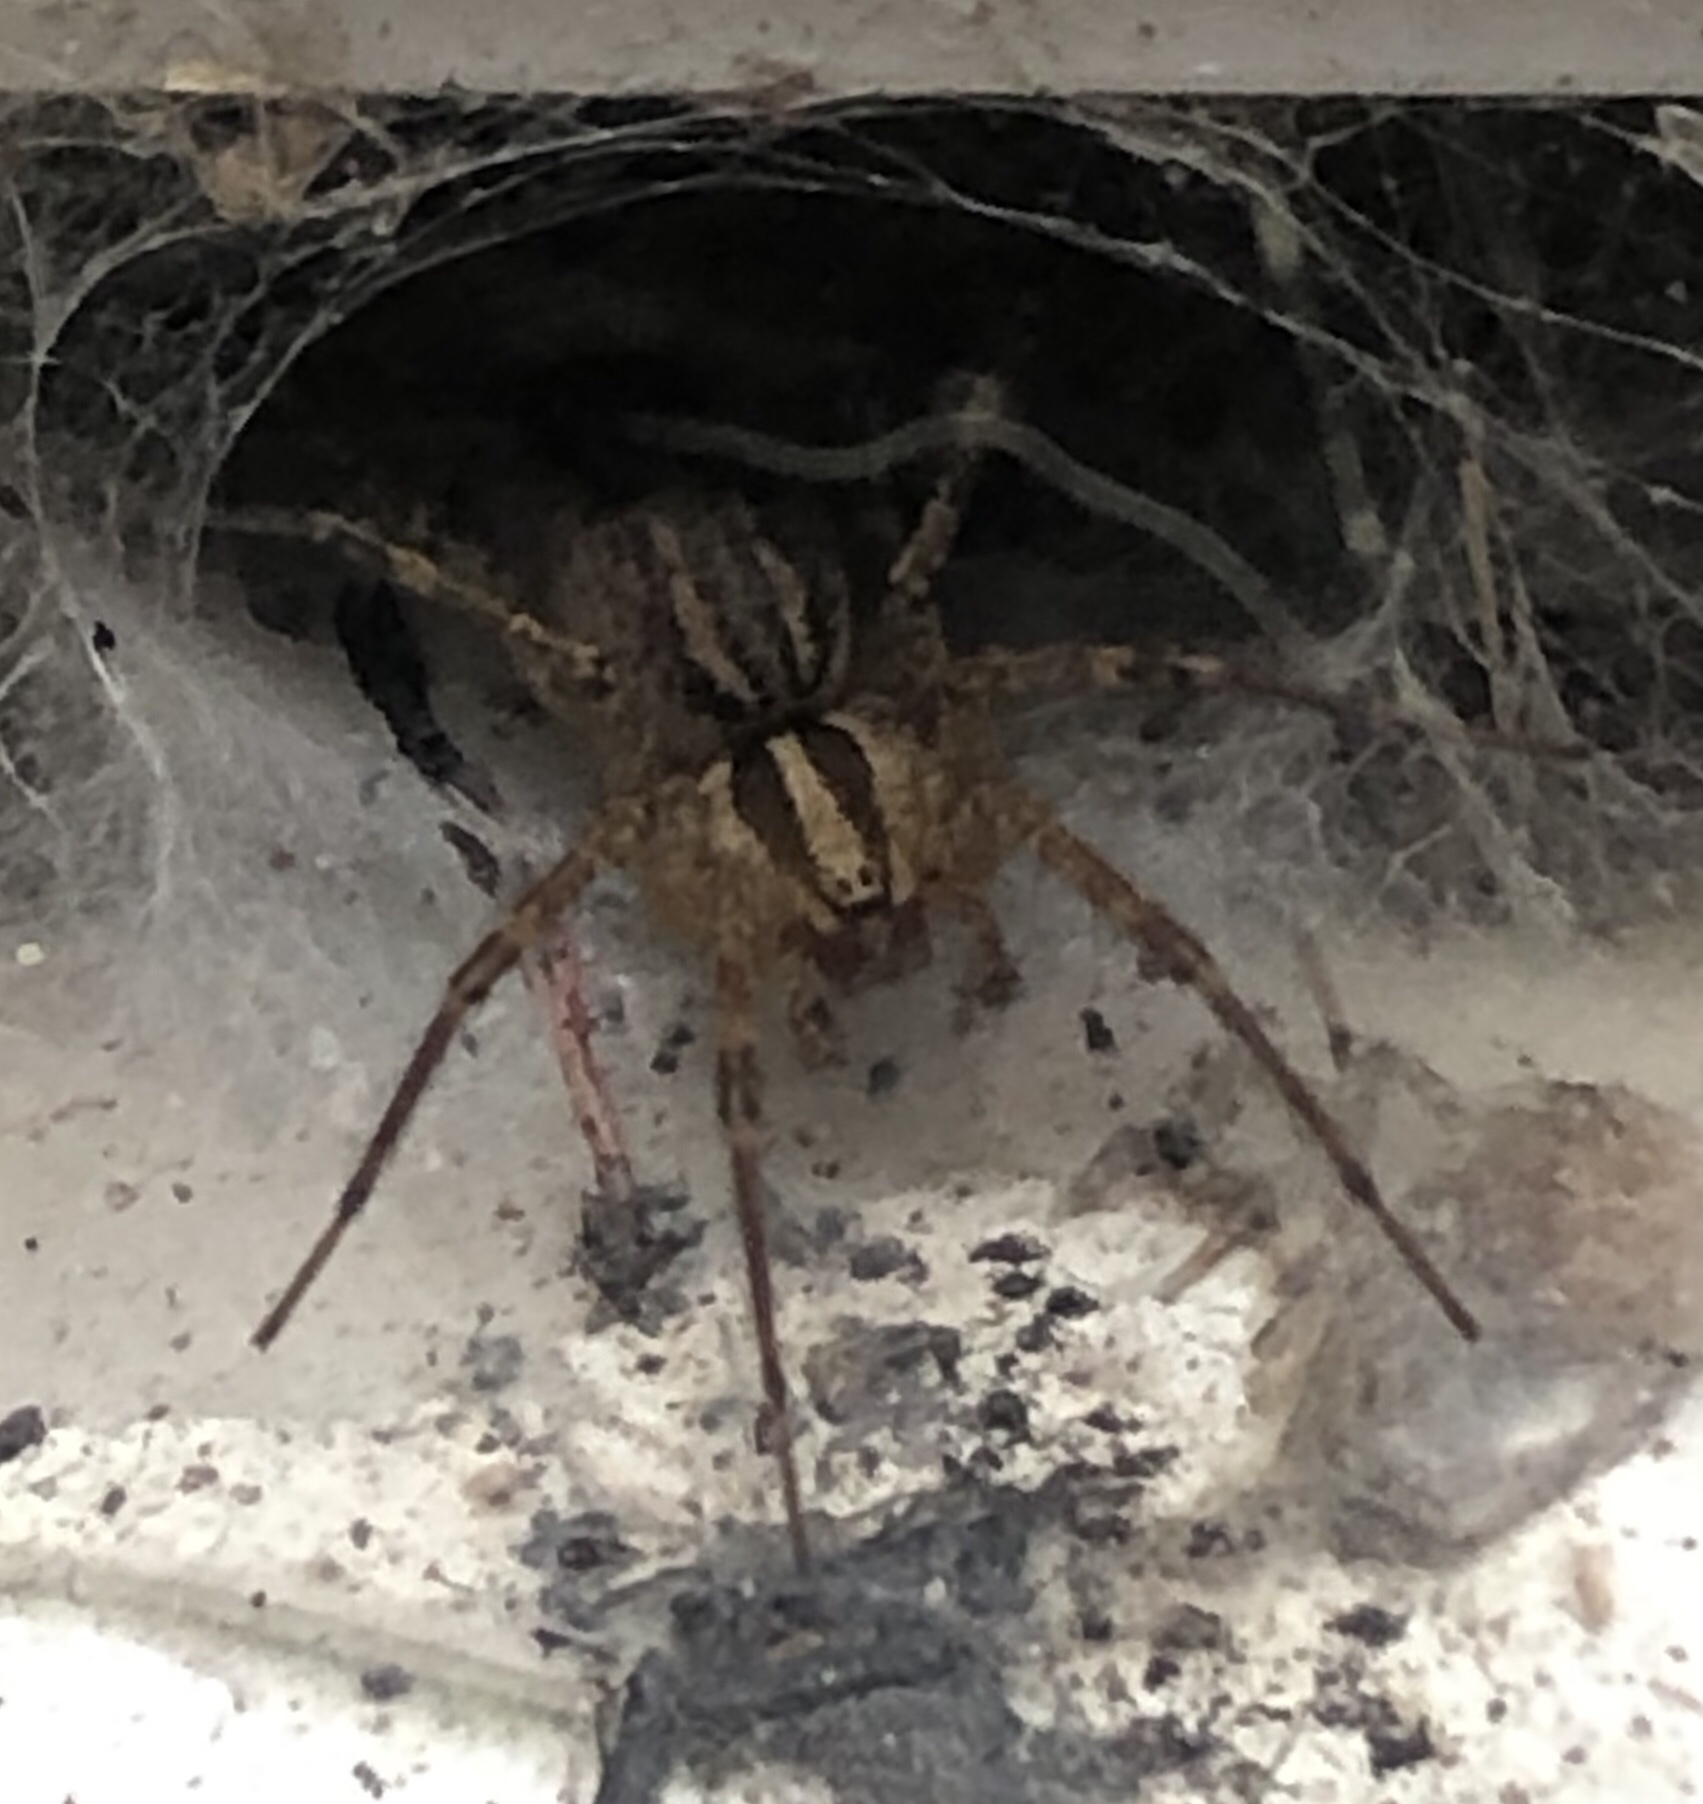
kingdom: Animalia
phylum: Arthropoda
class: Arachnida
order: Araneae
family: Agelenidae
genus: Agelenopsis
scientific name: Agelenopsis
